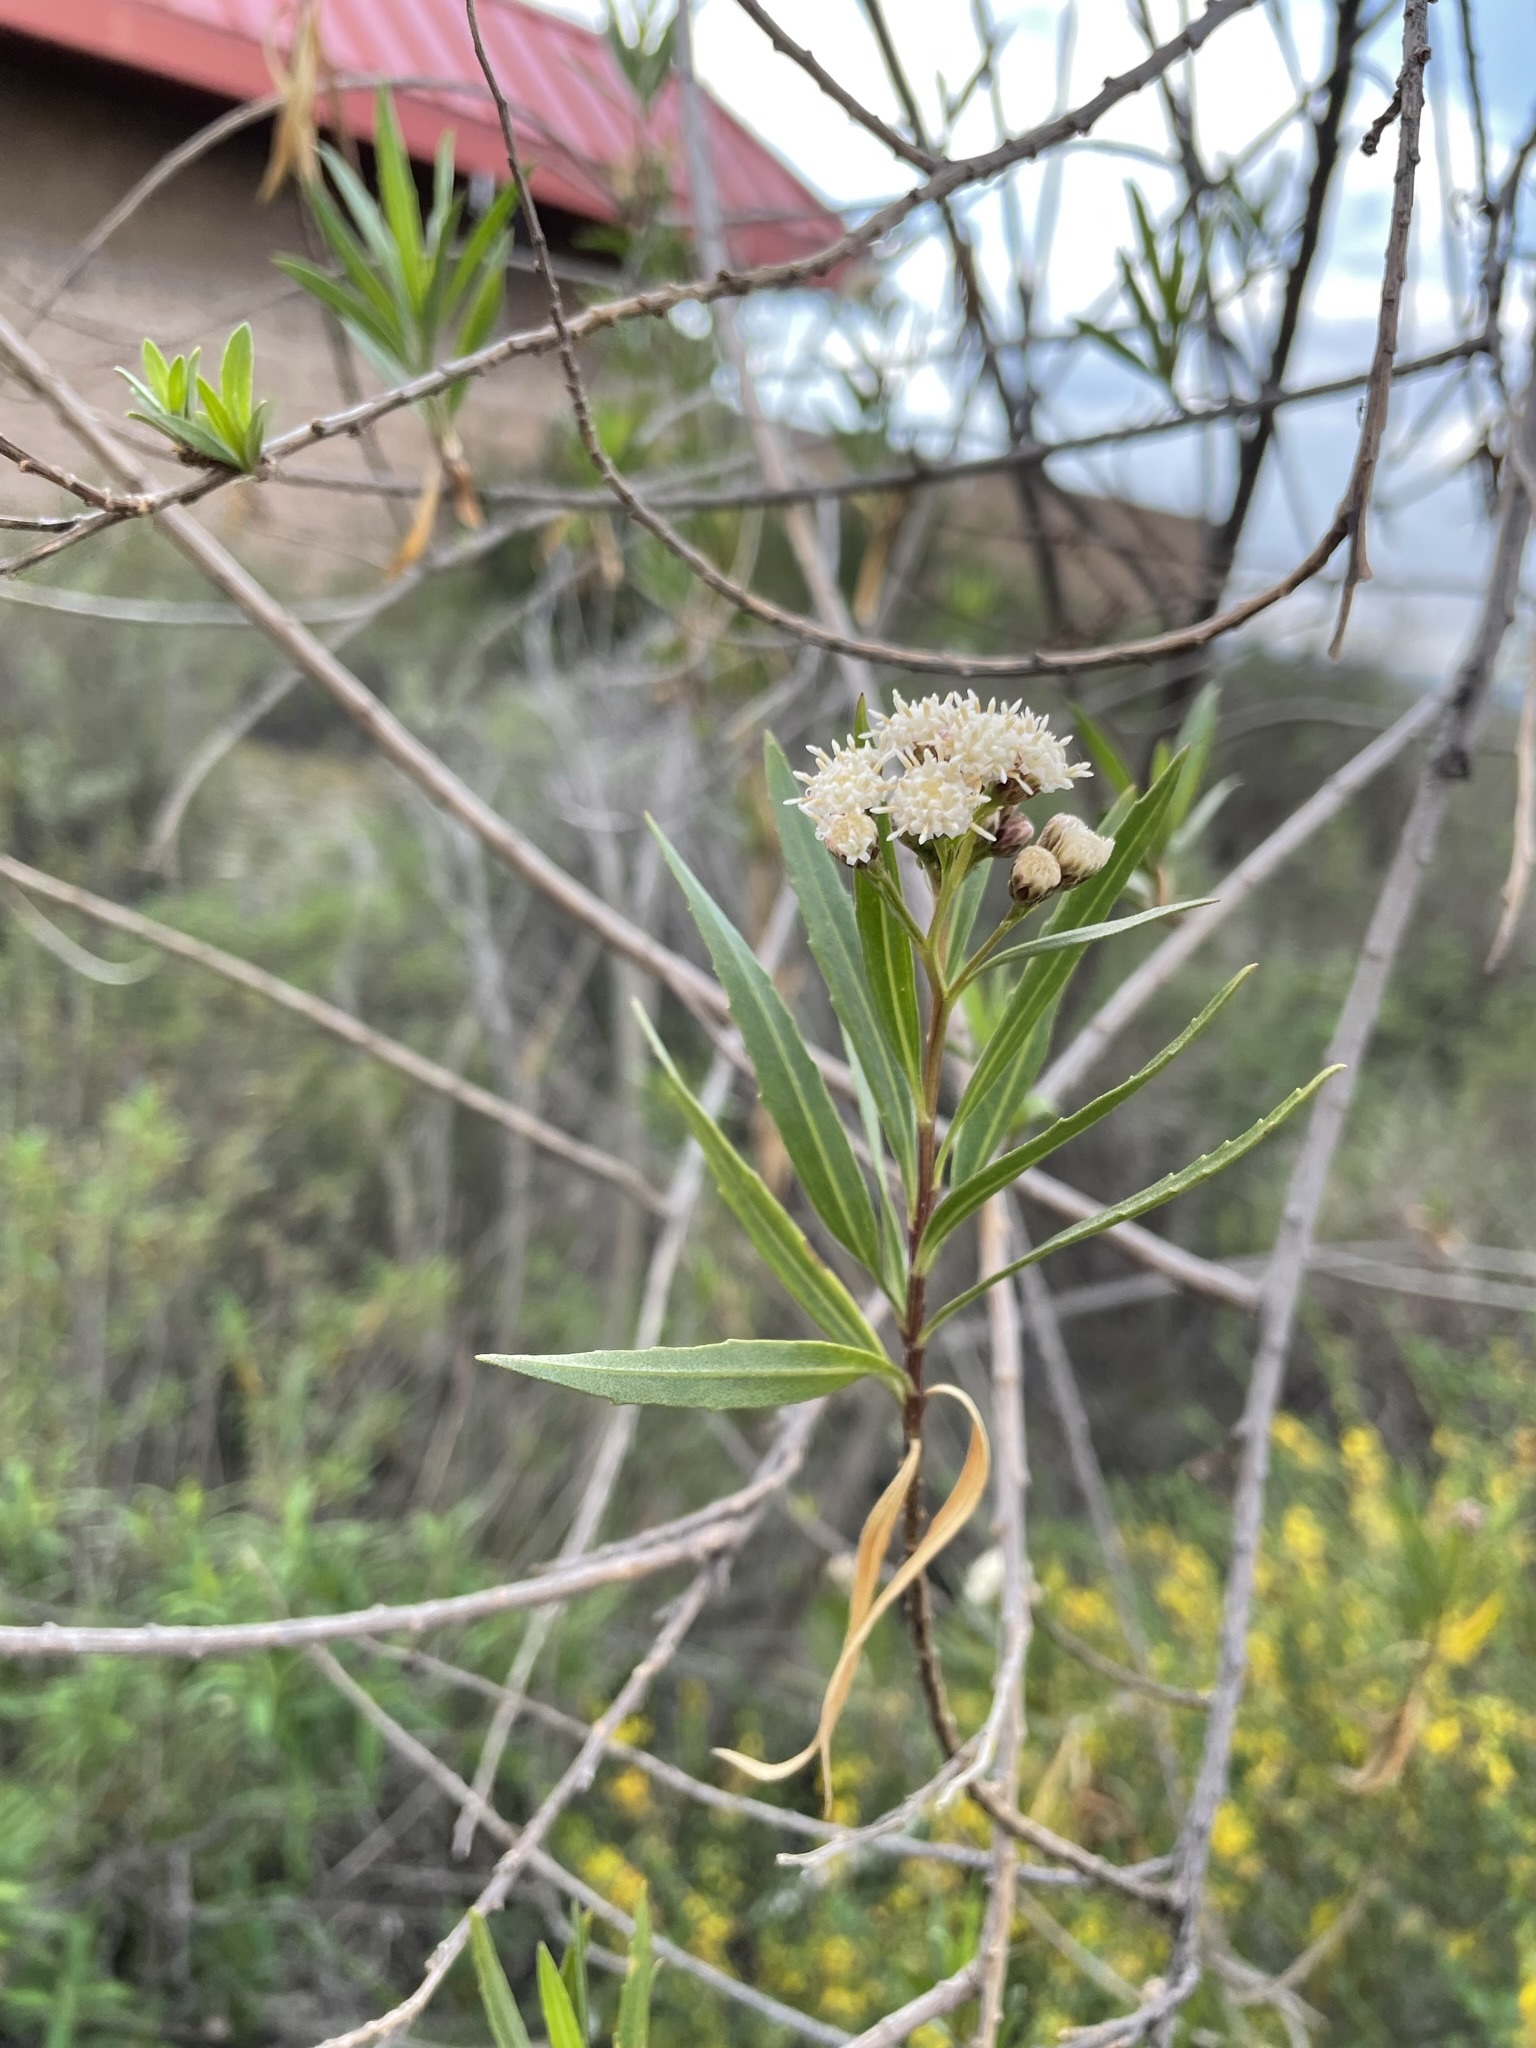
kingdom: Plantae
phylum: Tracheophyta
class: Magnoliopsida
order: Asterales
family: Asteraceae
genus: Baccharis
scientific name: Baccharis salicifolia
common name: Sticky baccharis
